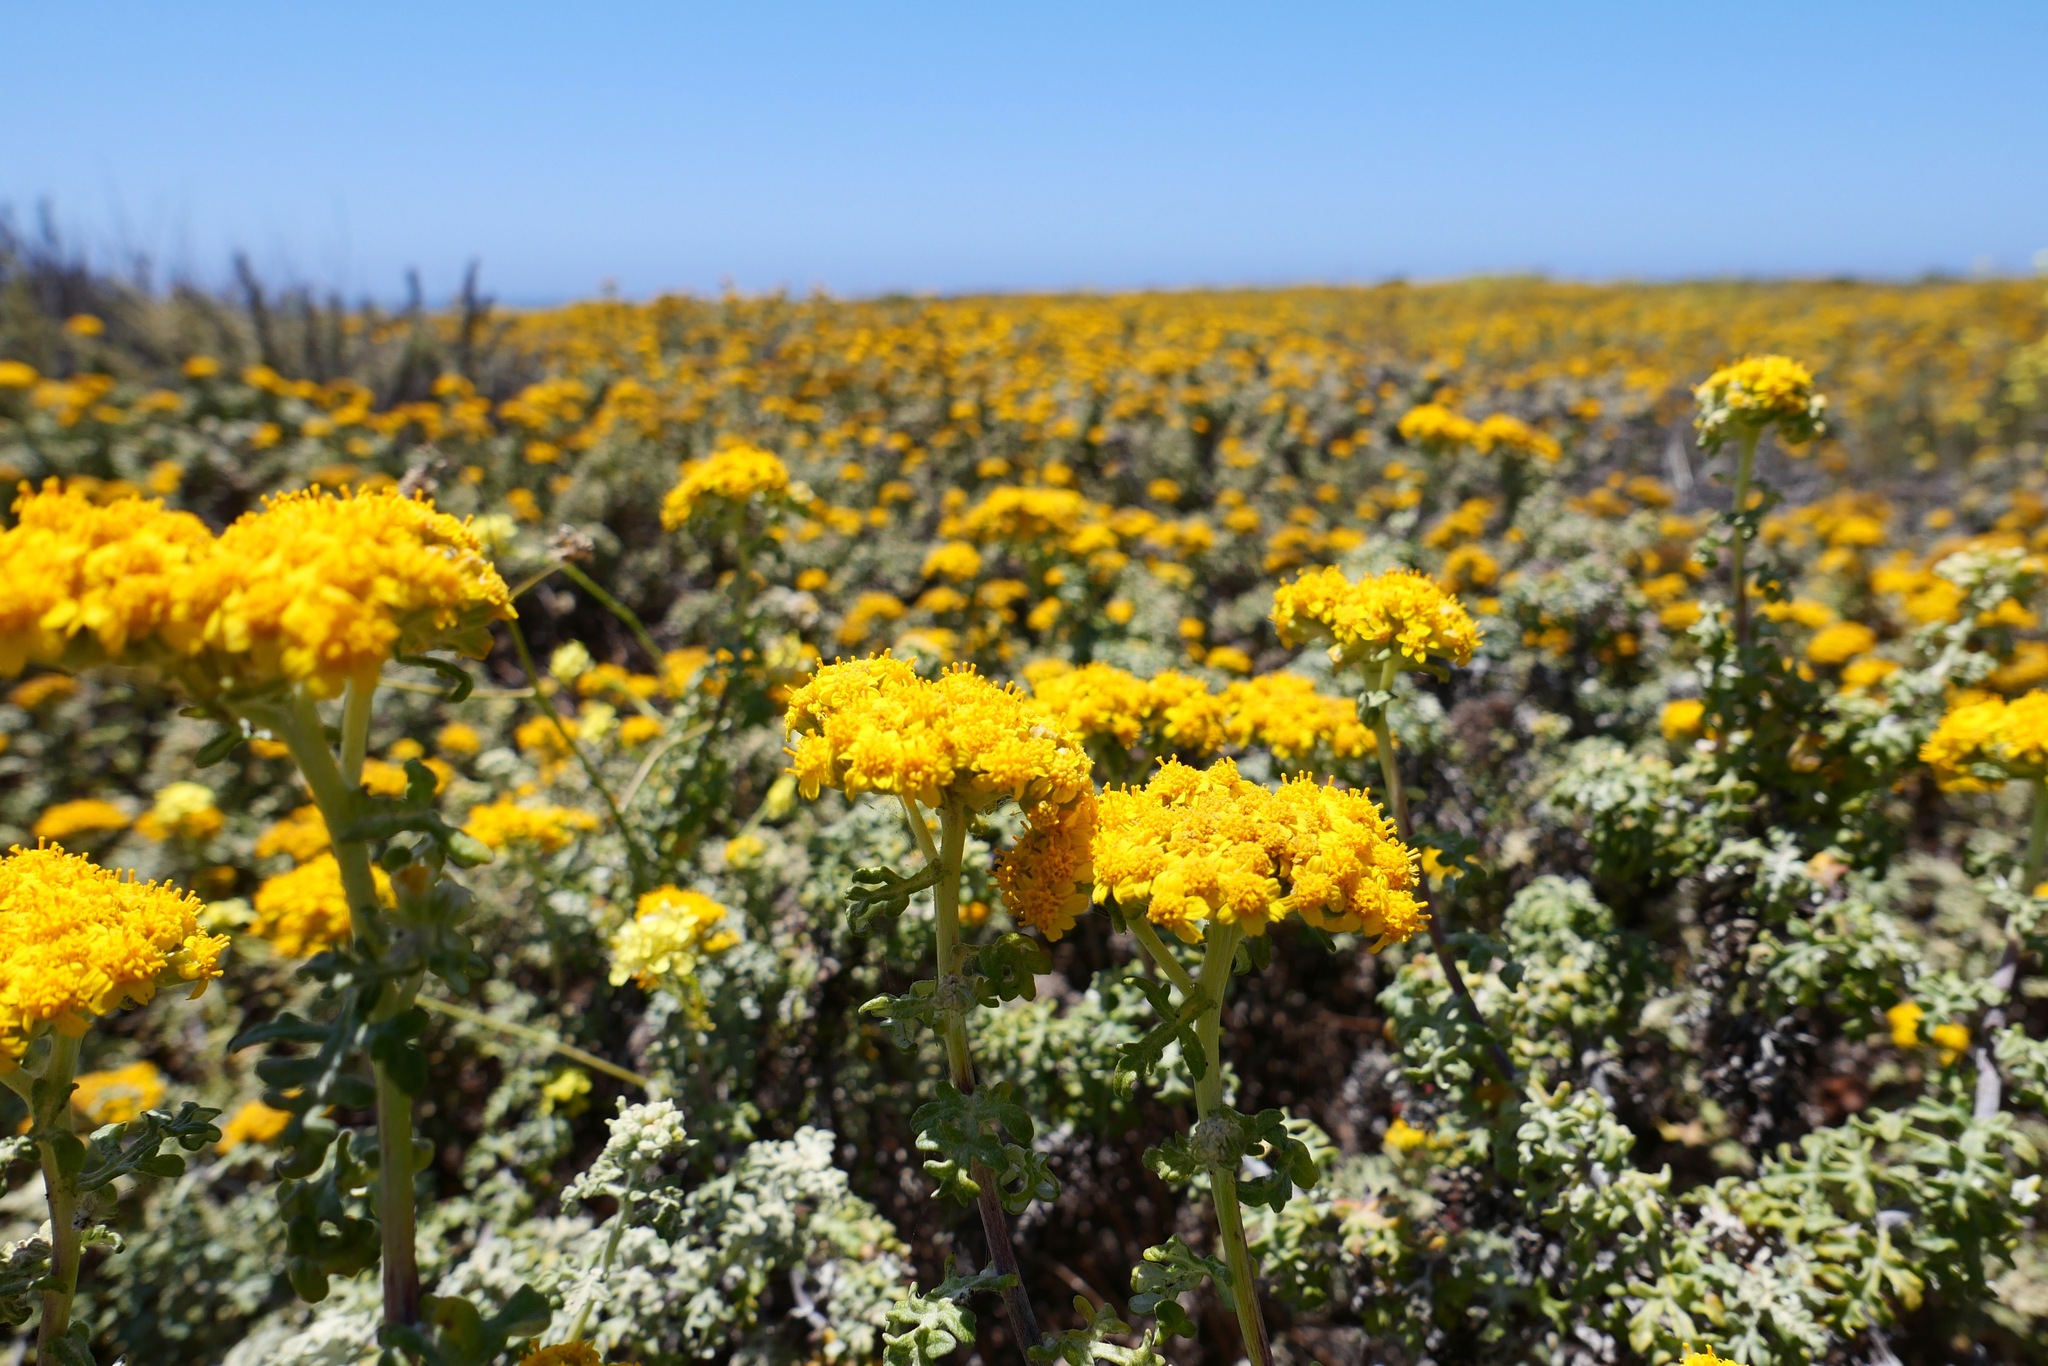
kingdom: Plantae
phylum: Tracheophyta
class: Magnoliopsida
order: Asterales
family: Asteraceae
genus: Eriophyllum
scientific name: Eriophyllum staechadifolium
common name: Lizardtail
